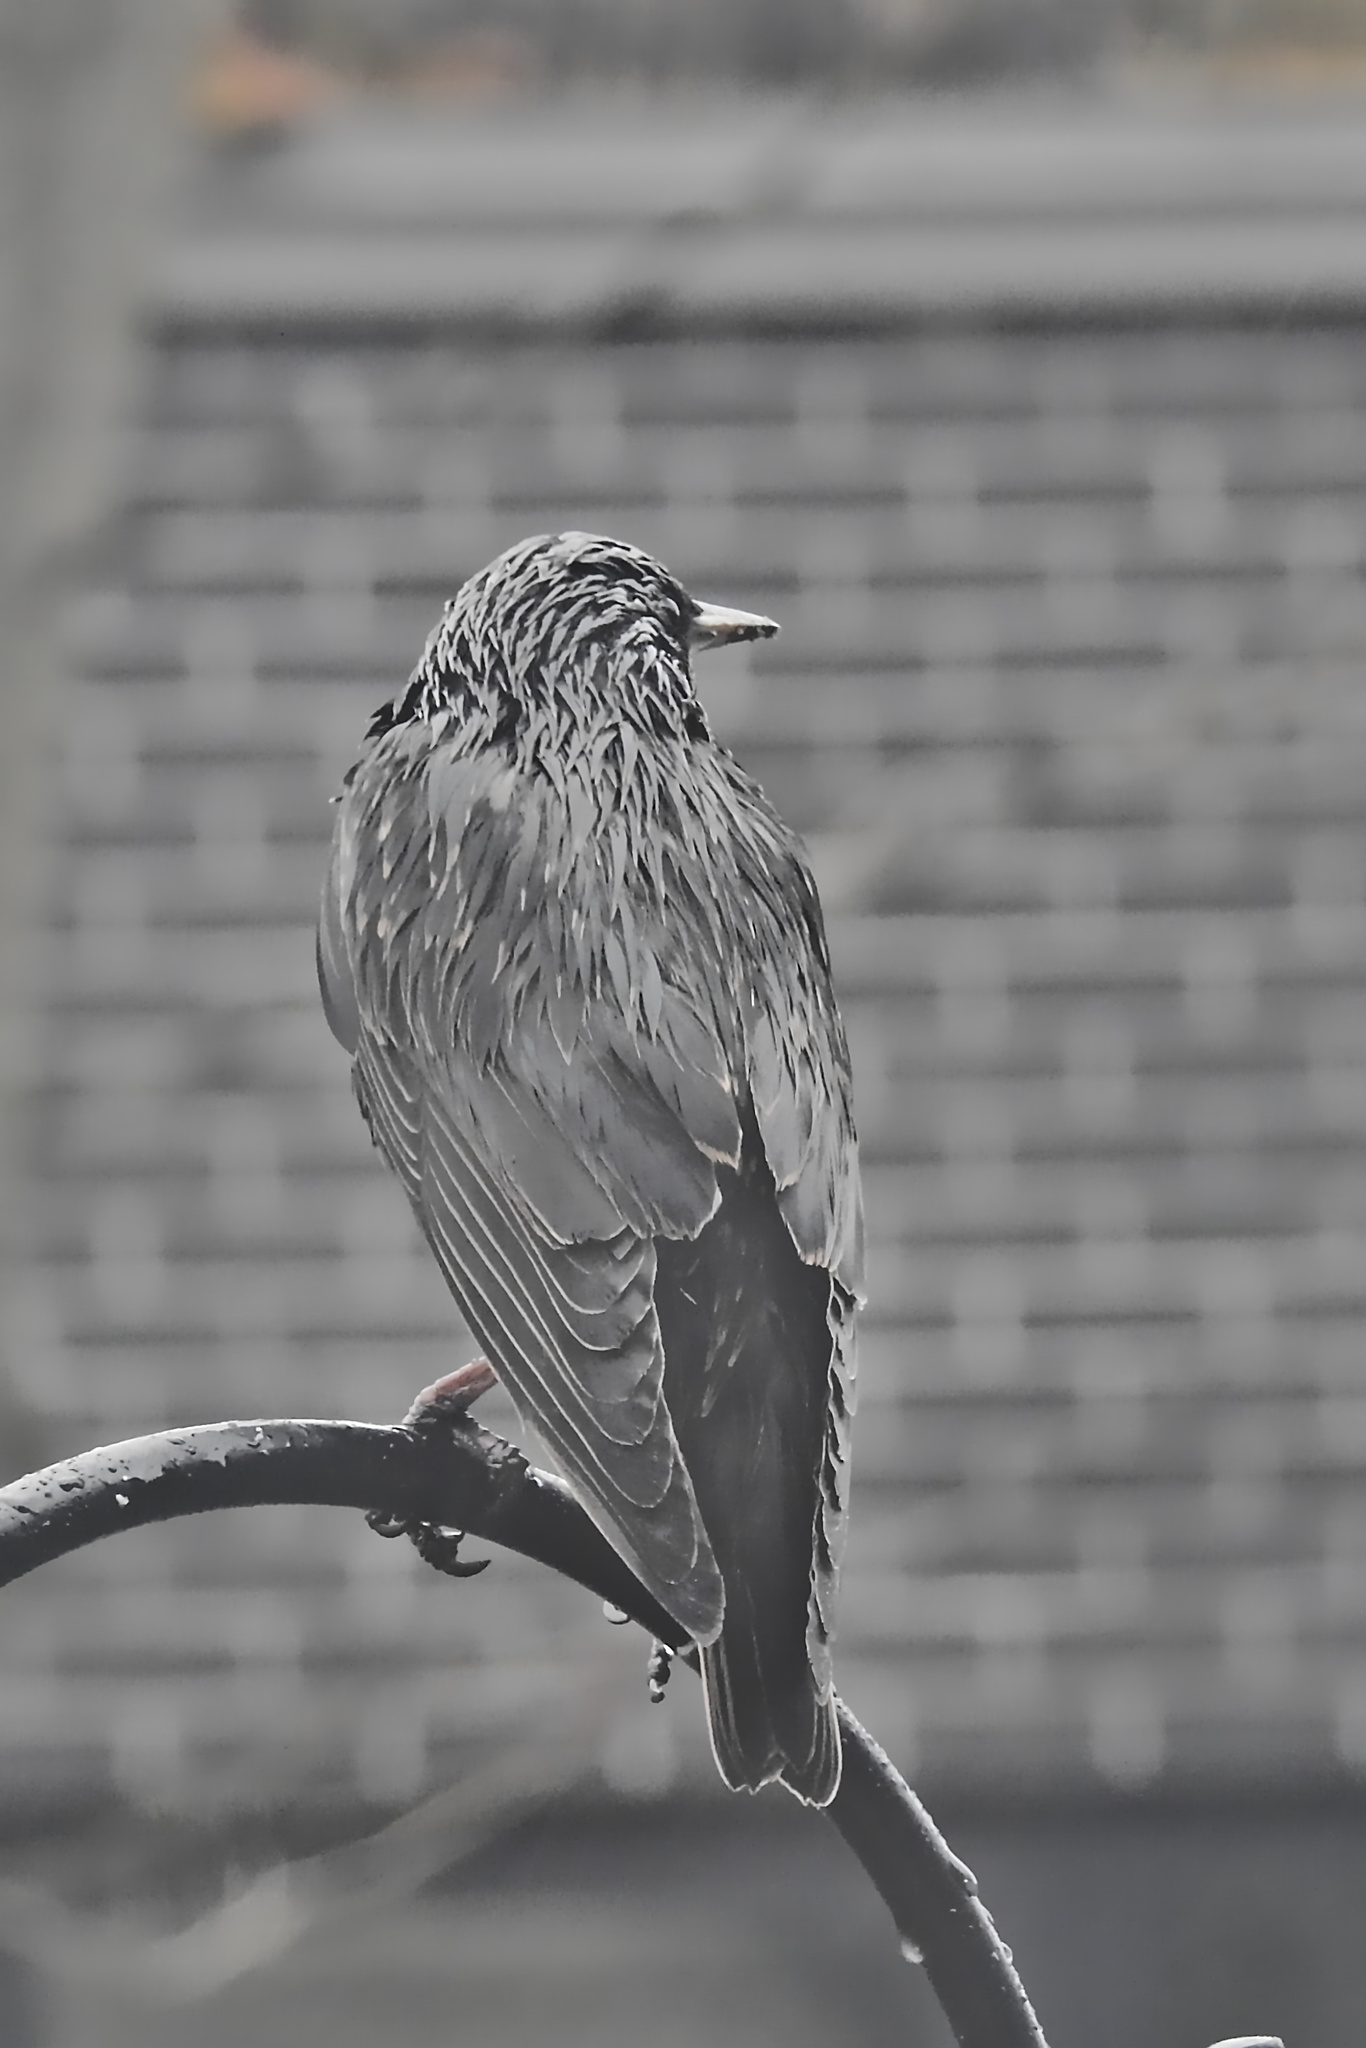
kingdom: Animalia
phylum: Chordata
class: Aves
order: Passeriformes
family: Sturnidae
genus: Sturnus
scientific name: Sturnus vulgaris
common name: Common starling
